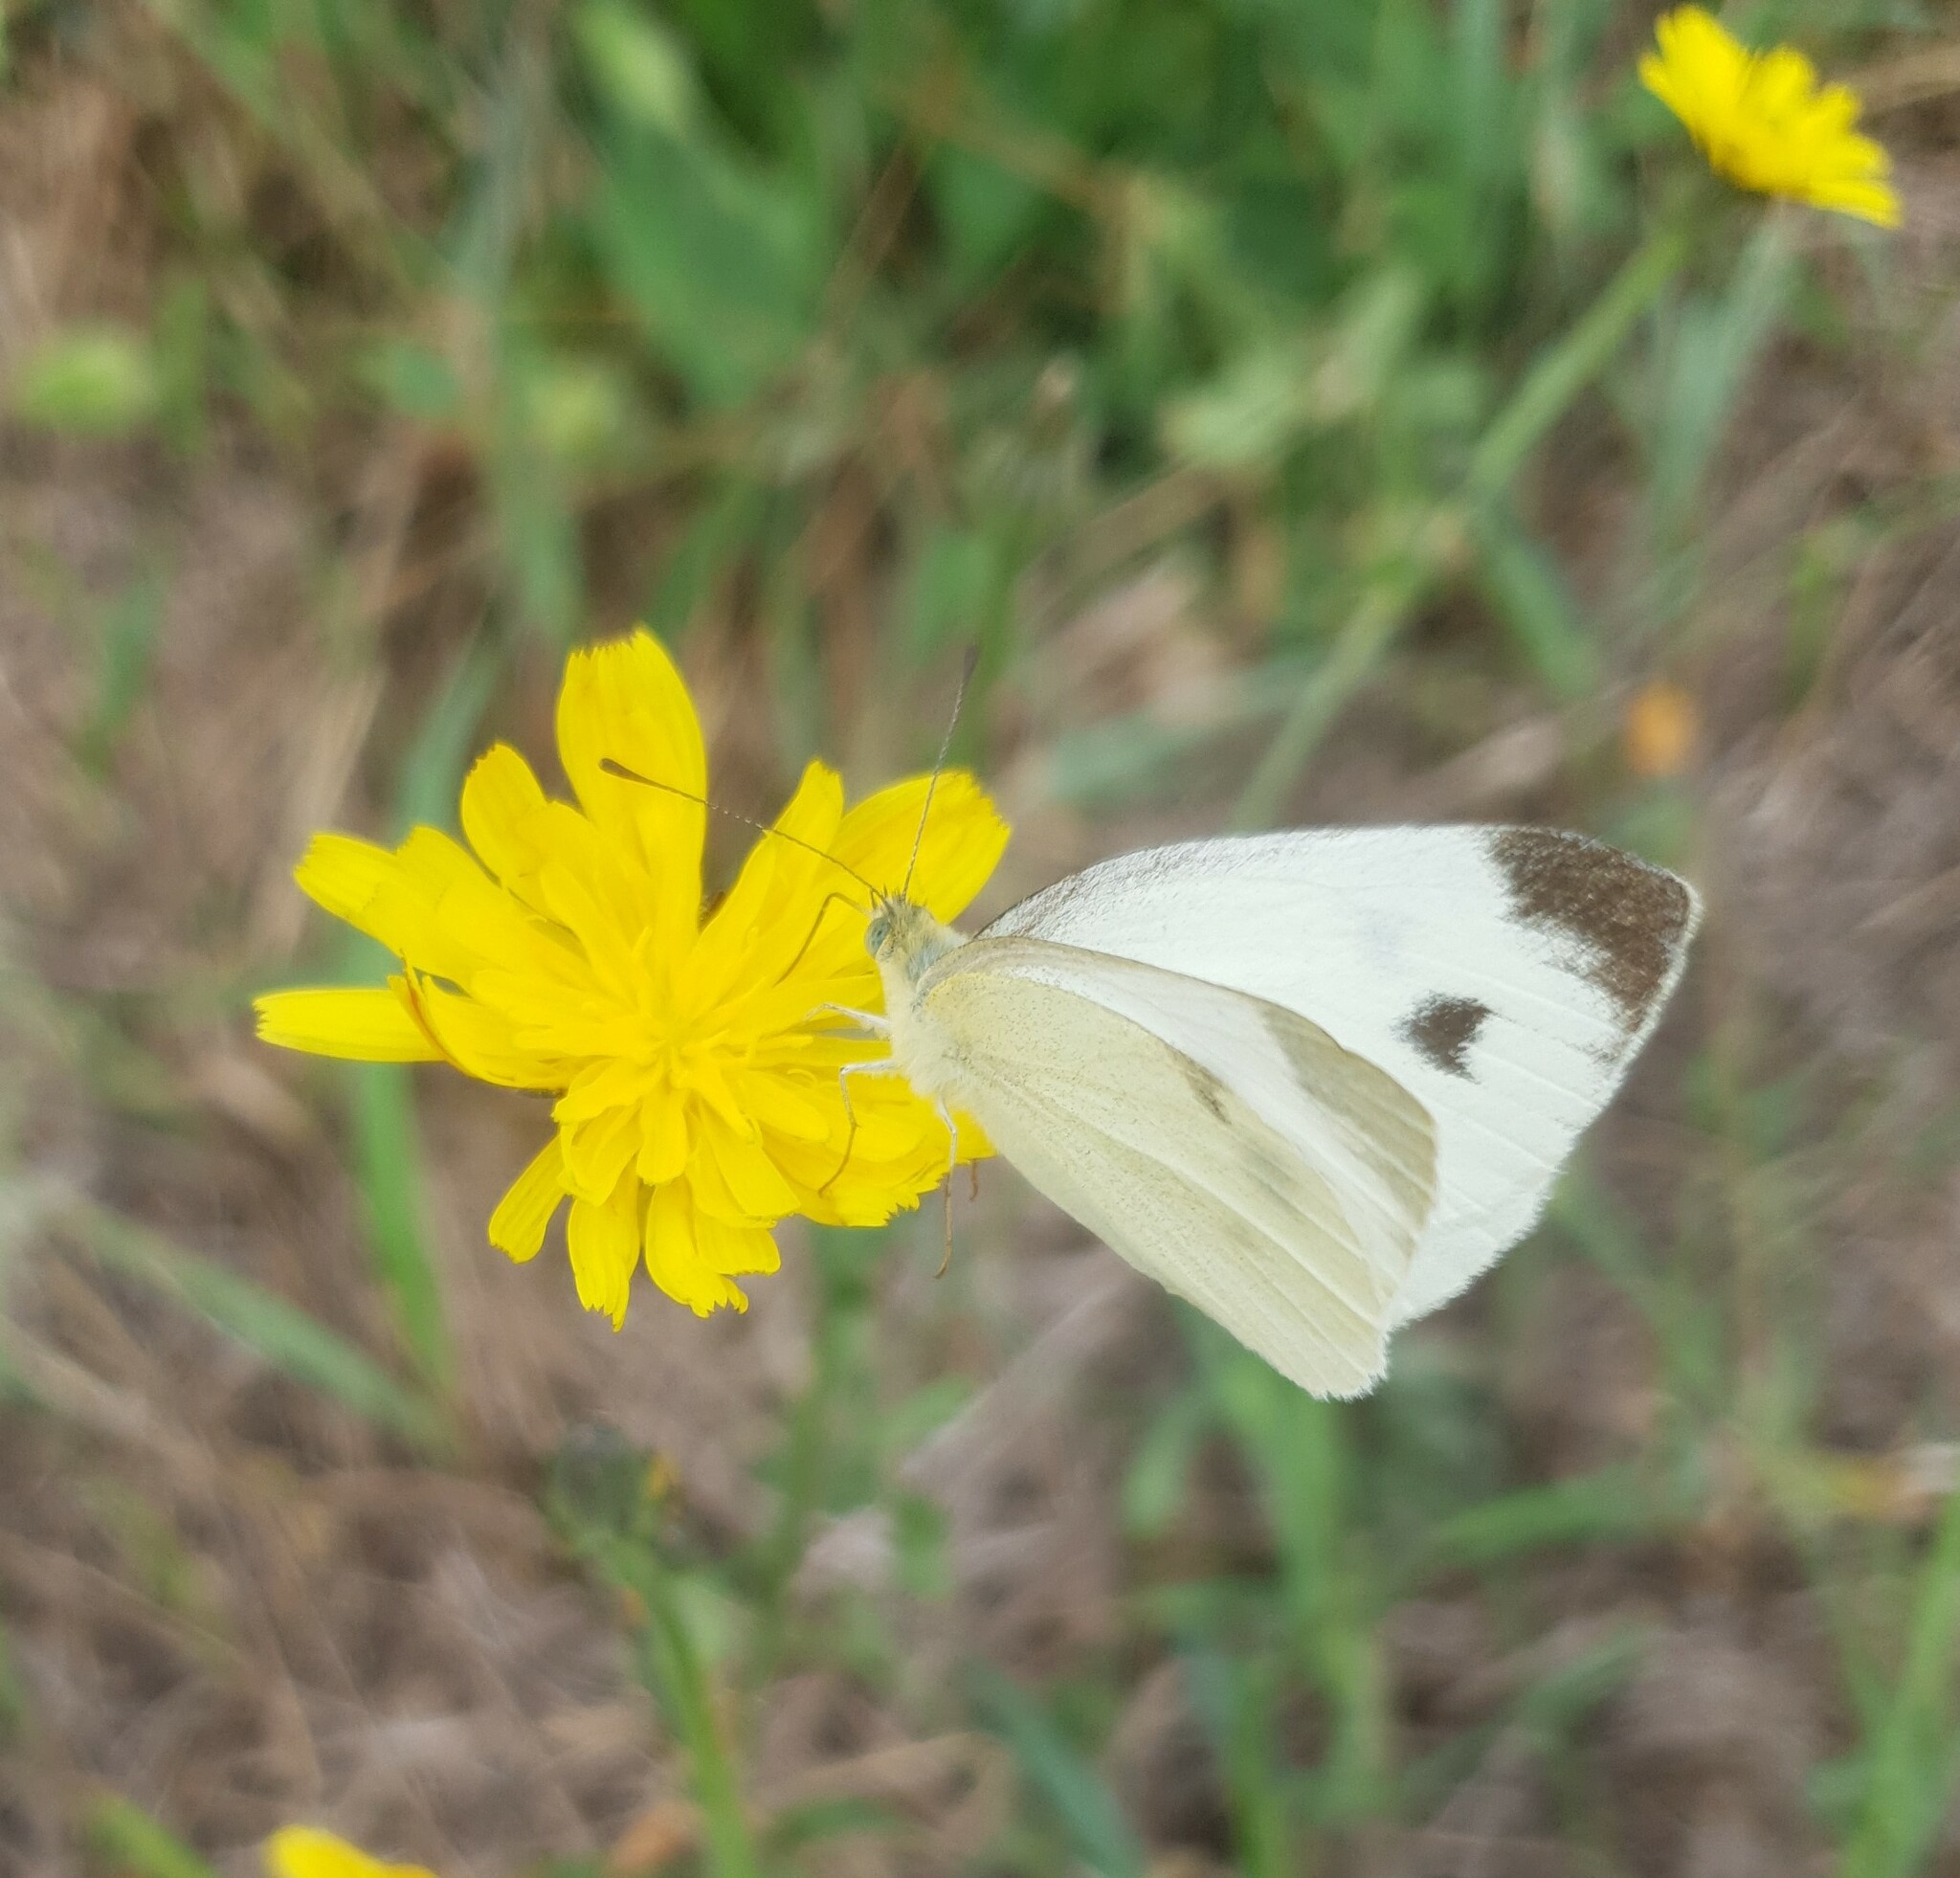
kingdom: Animalia
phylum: Arthropoda
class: Insecta
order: Lepidoptera
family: Pieridae
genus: Pieris
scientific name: Pieris mannii
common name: Southern small white
